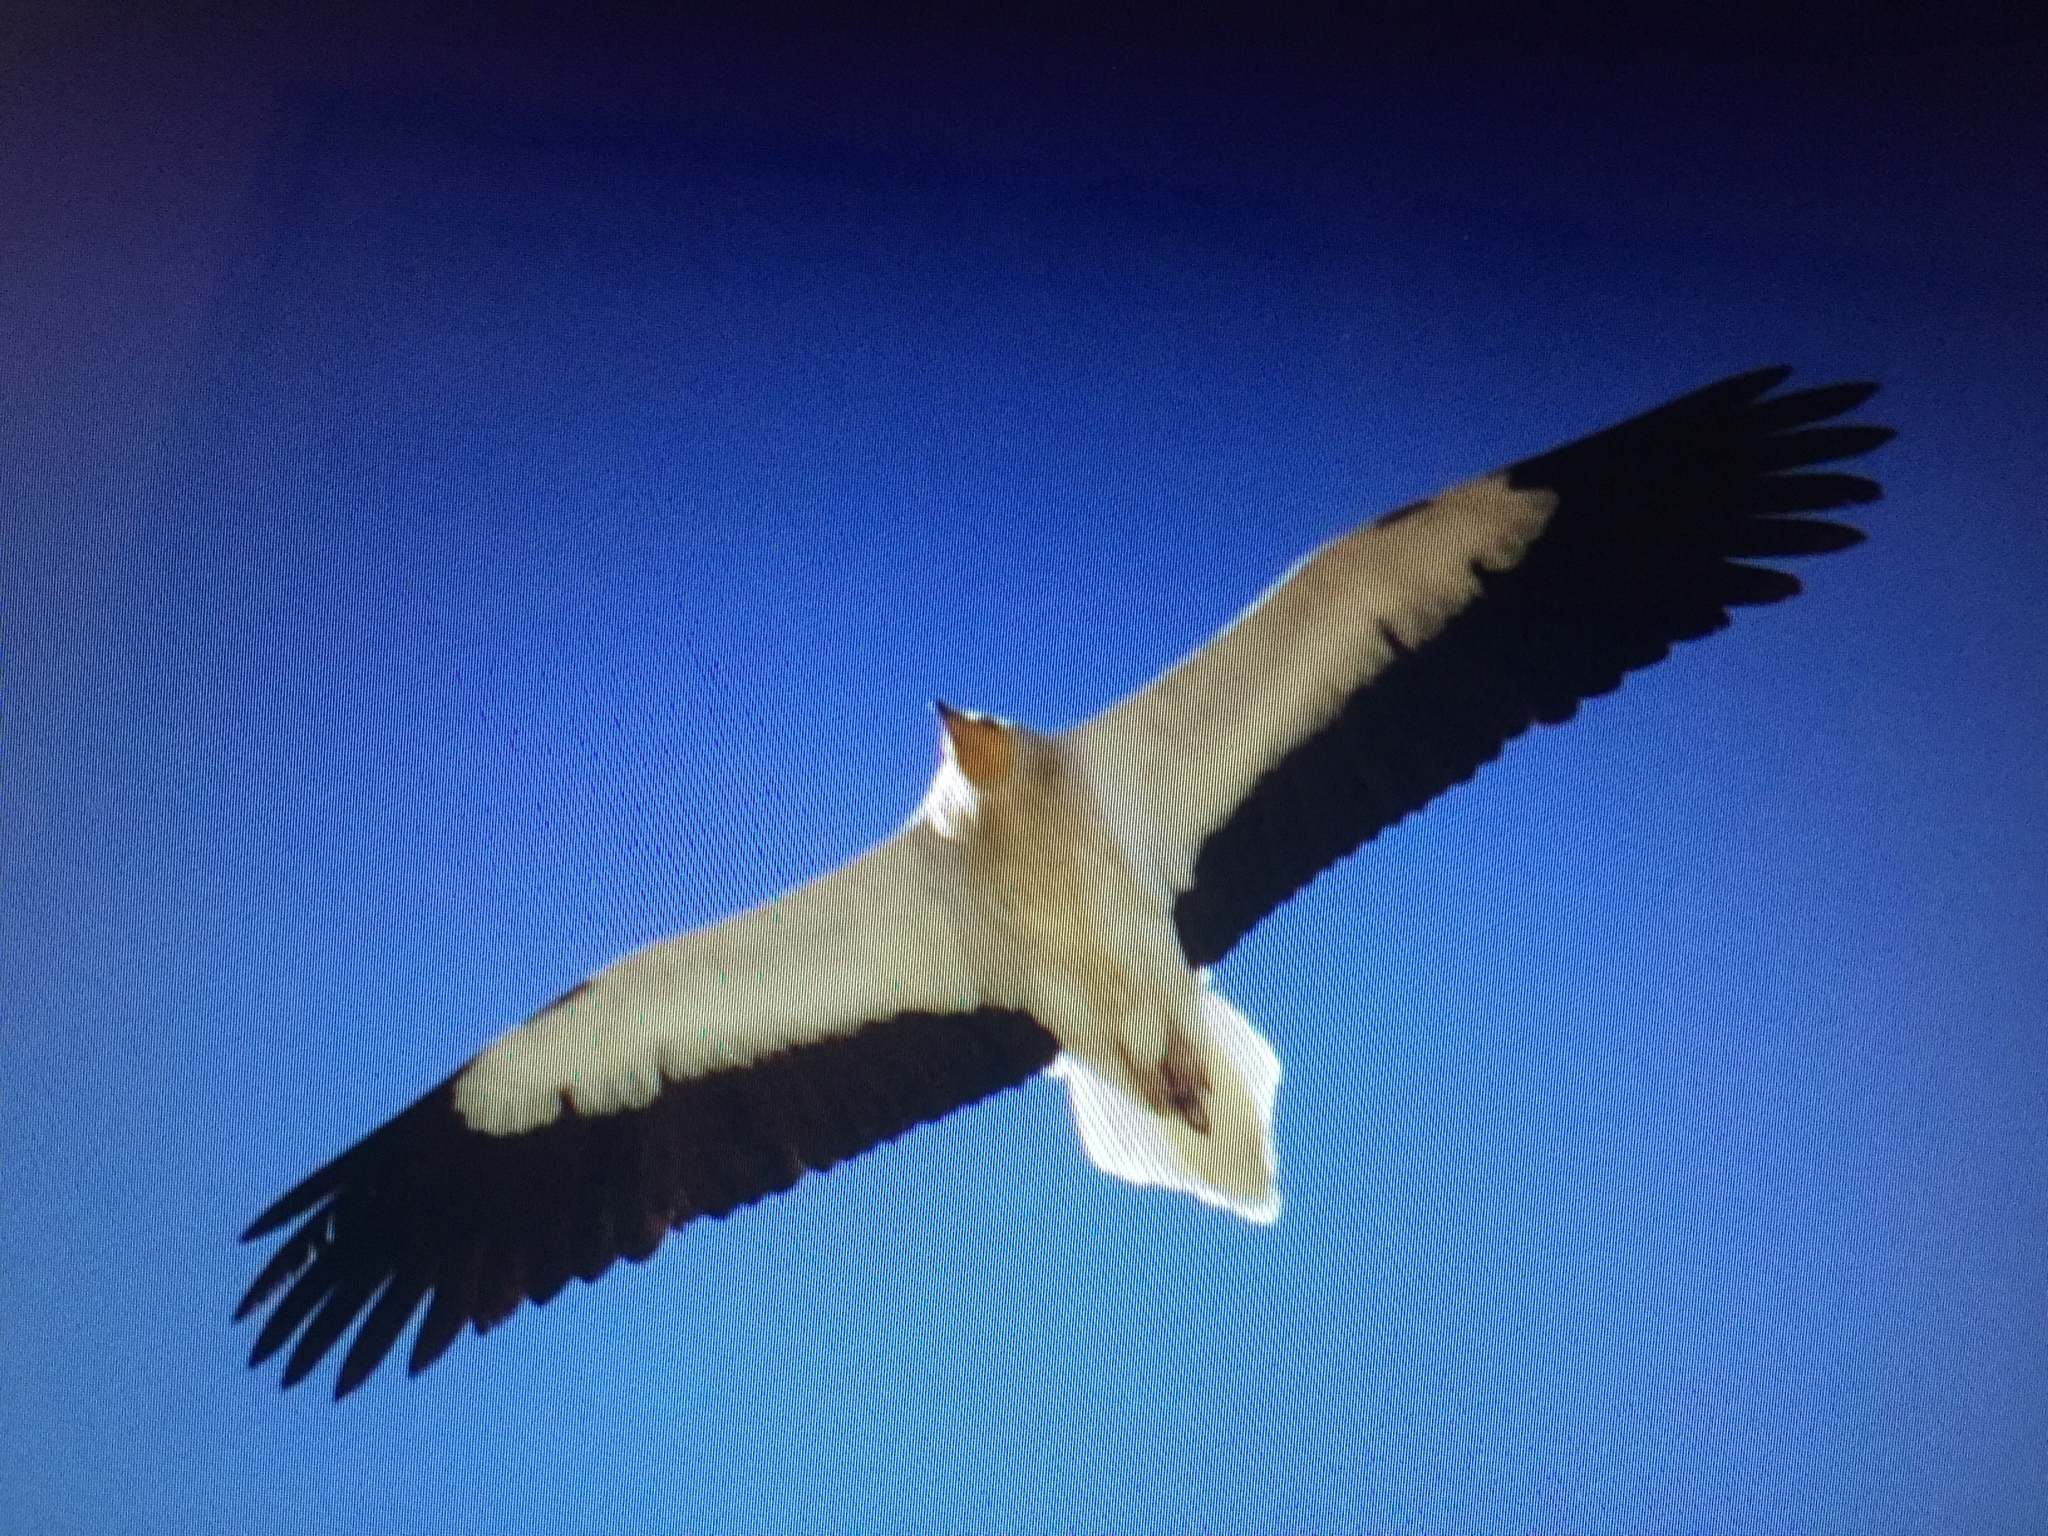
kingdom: Animalia
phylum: Chordata
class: Aves
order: Accipitriformes
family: Accipitridae
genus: Neophron
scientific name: Neophron percnopterus
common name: Egyptian vulture
